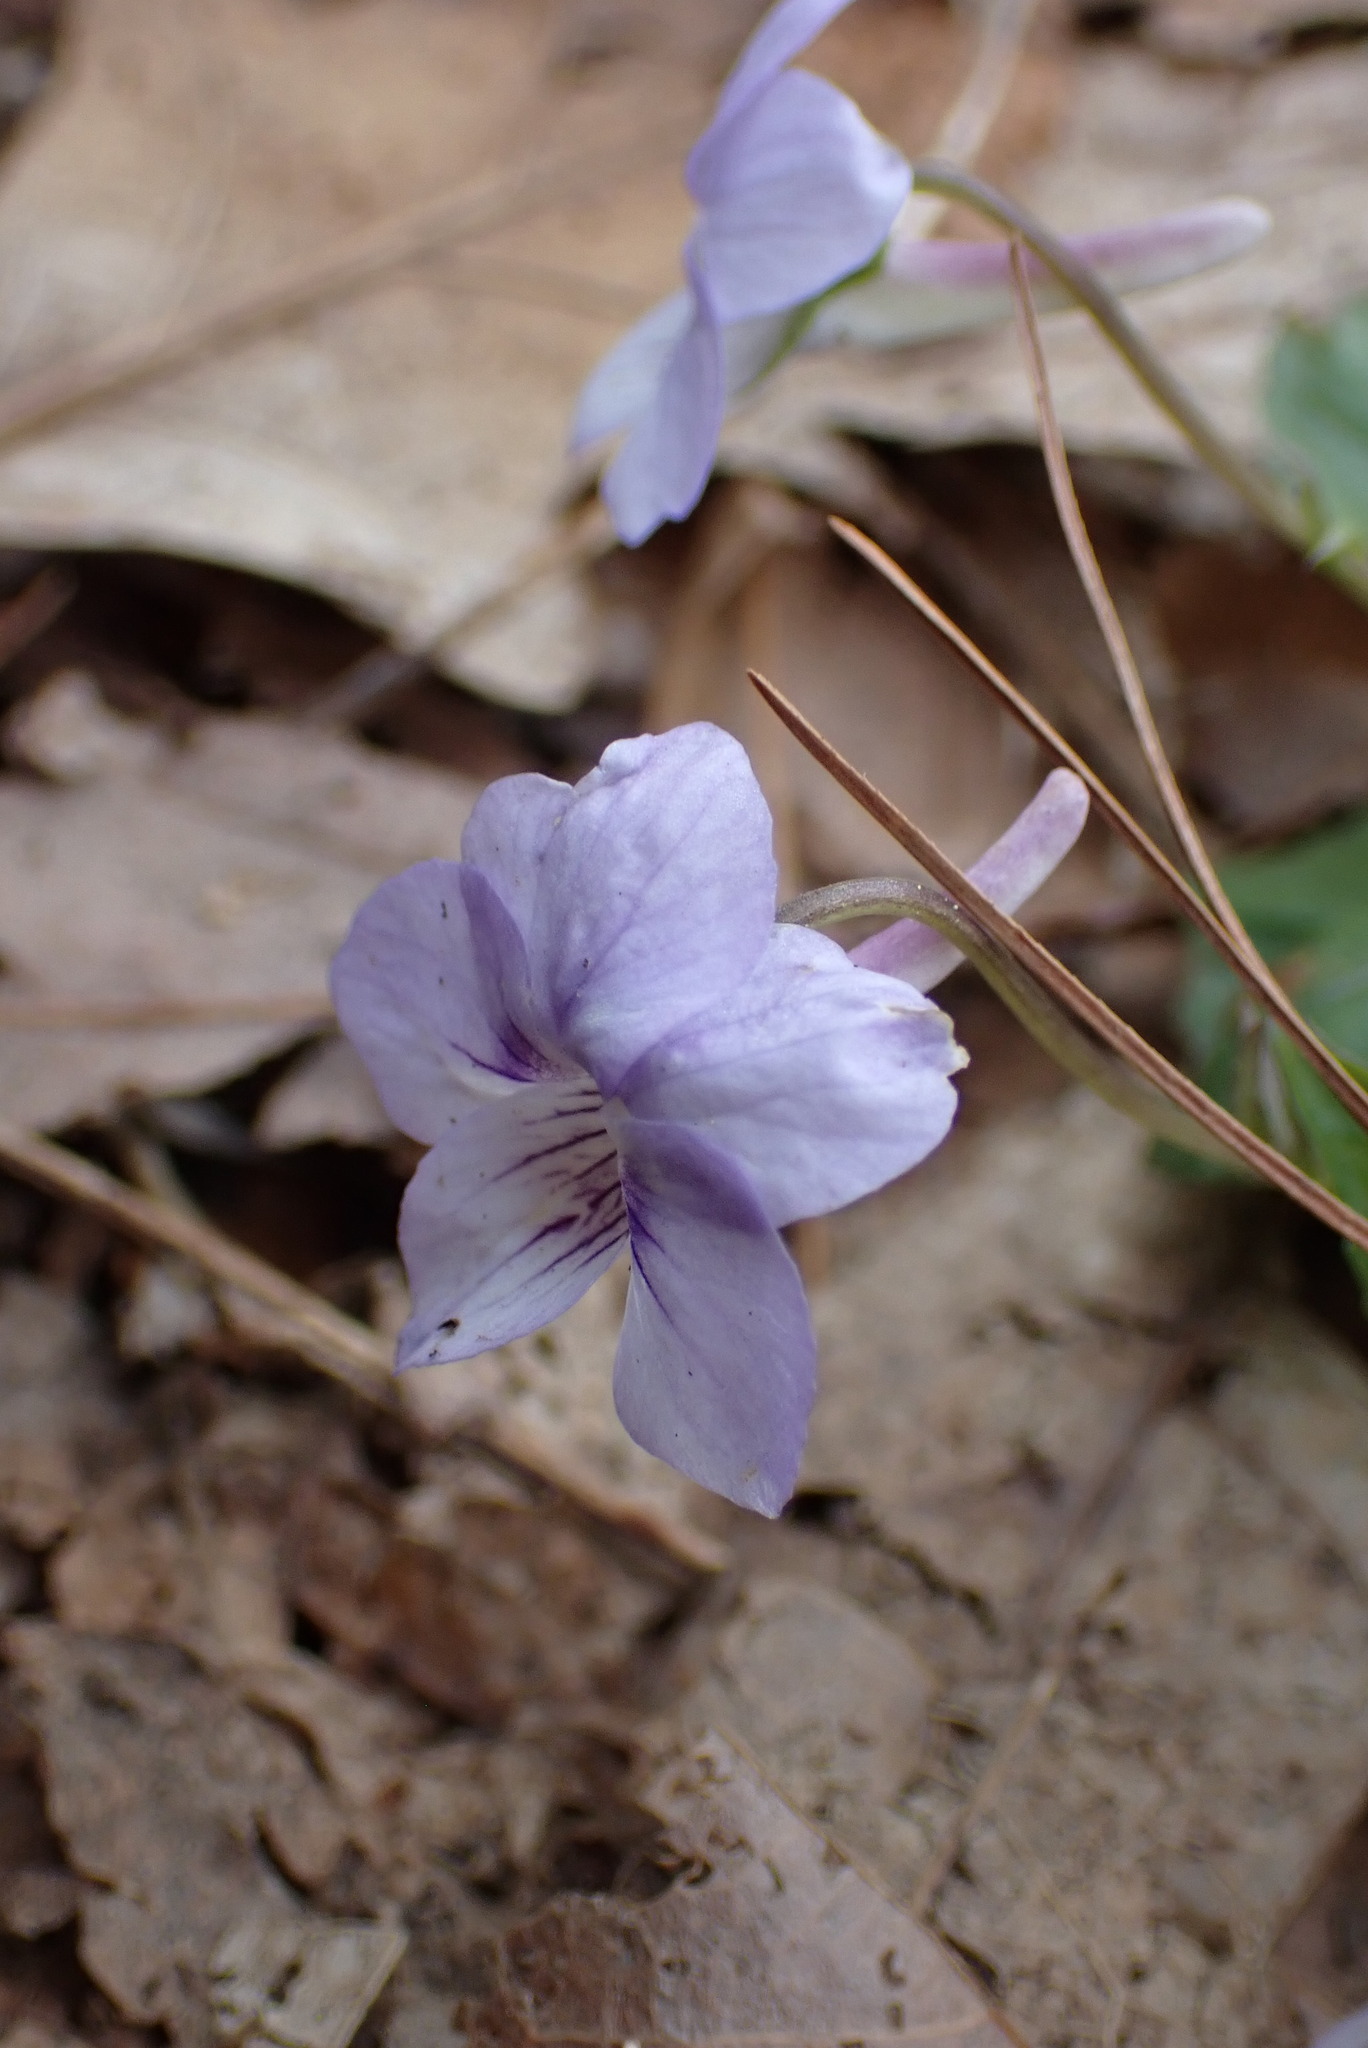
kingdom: Plantae
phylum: Tracheophyta
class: Magnoliopsida
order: Malpighiales
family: Violaceae
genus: Viola
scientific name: Viola rostrata
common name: Long-spur violet
